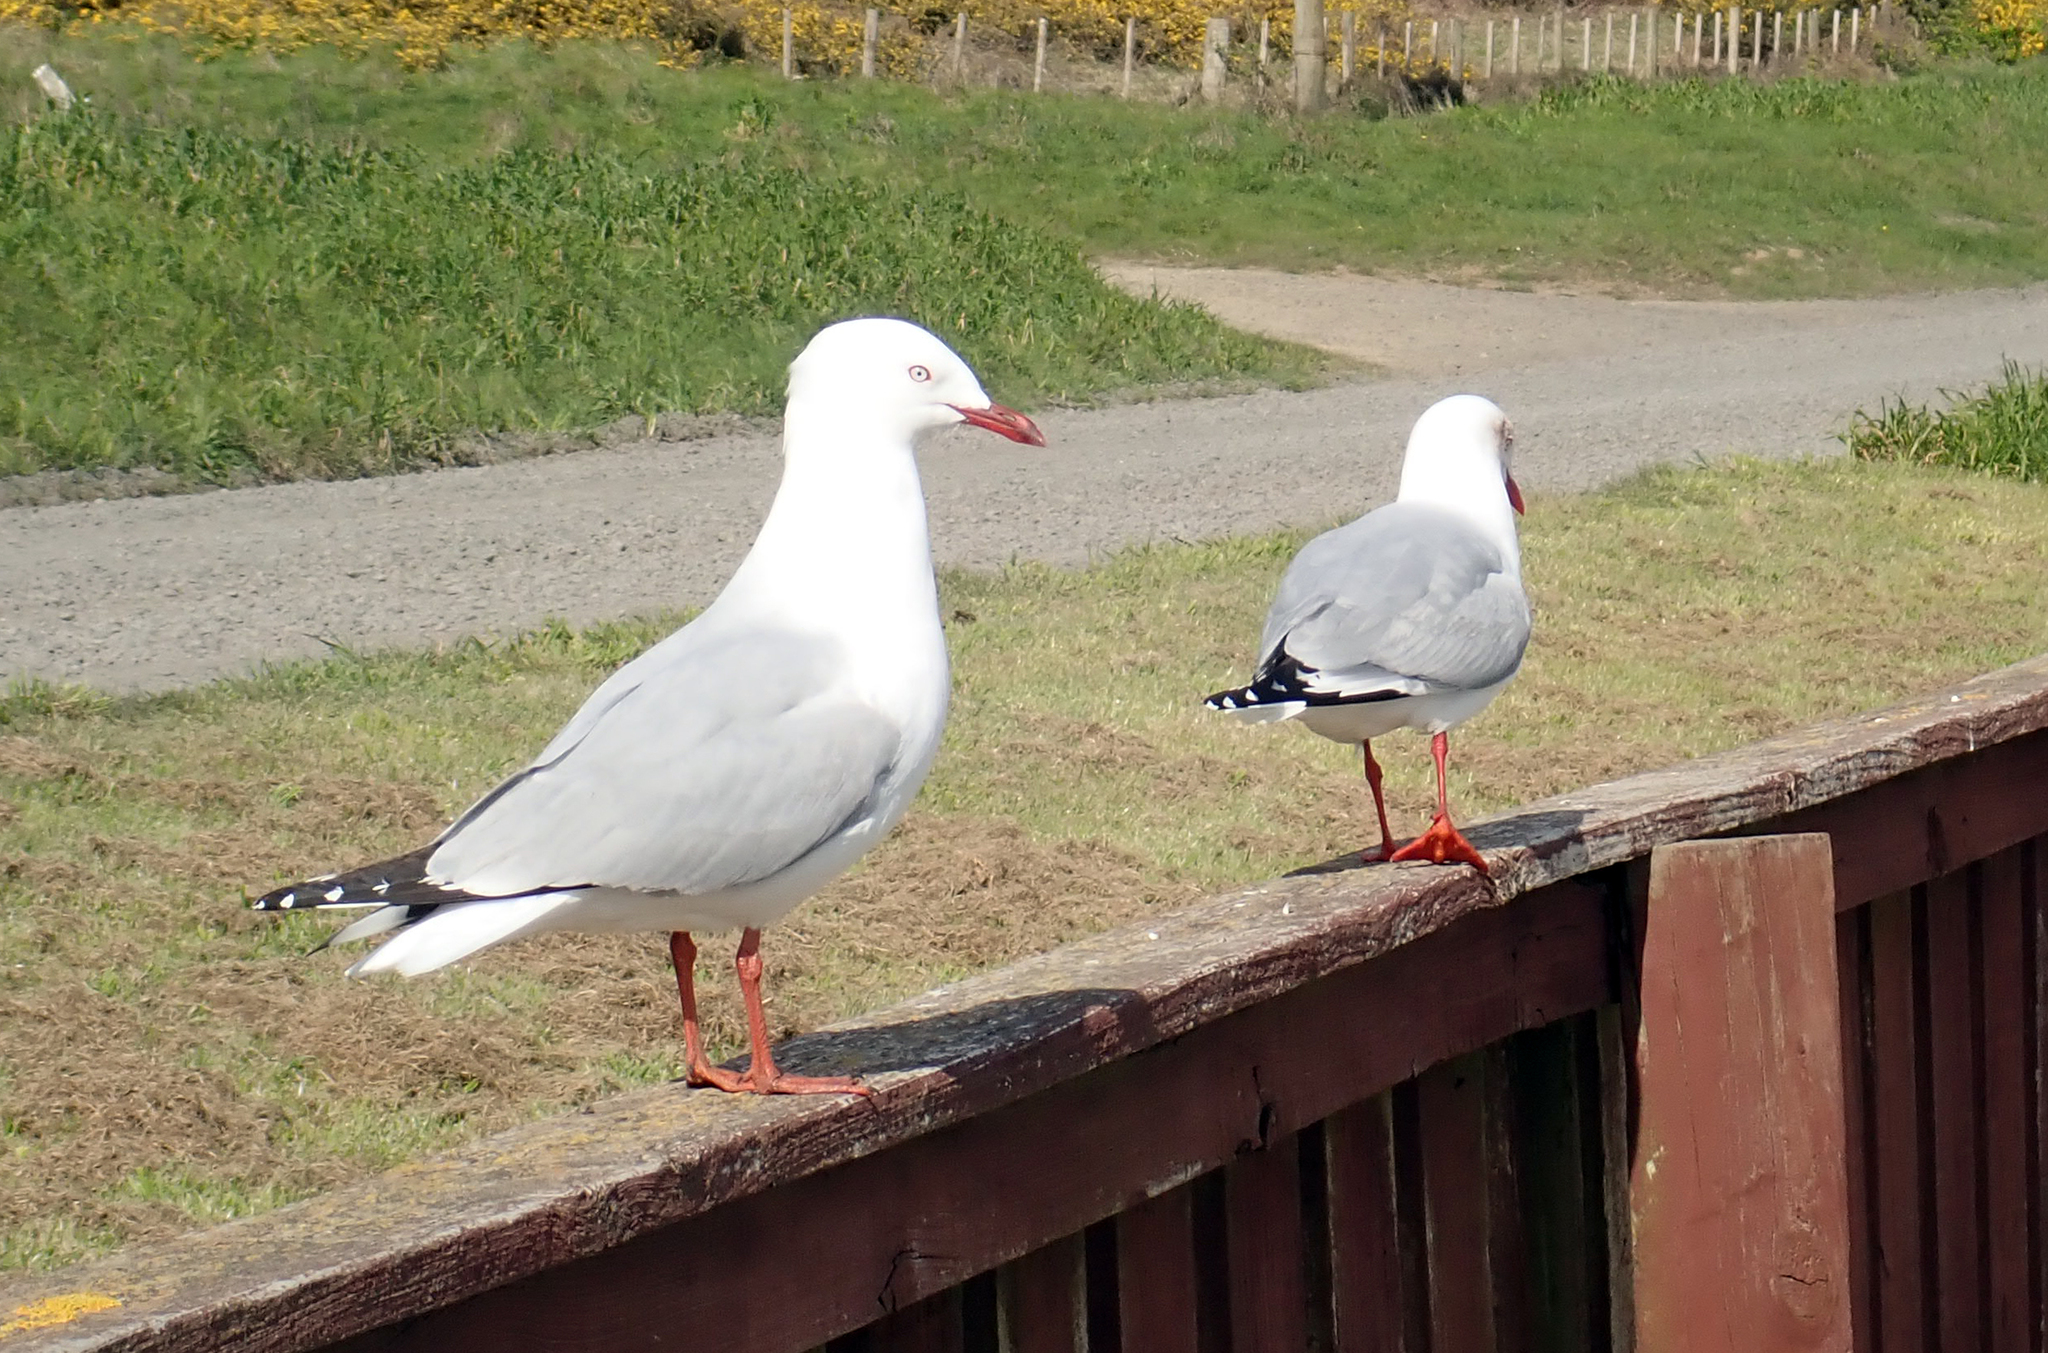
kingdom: Animalia
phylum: Chordata
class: Aves
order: Charadriiformes
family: Laridae
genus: Chroicocephalus
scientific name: Chroicocephalus novaehollandiae
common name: Silver gull
